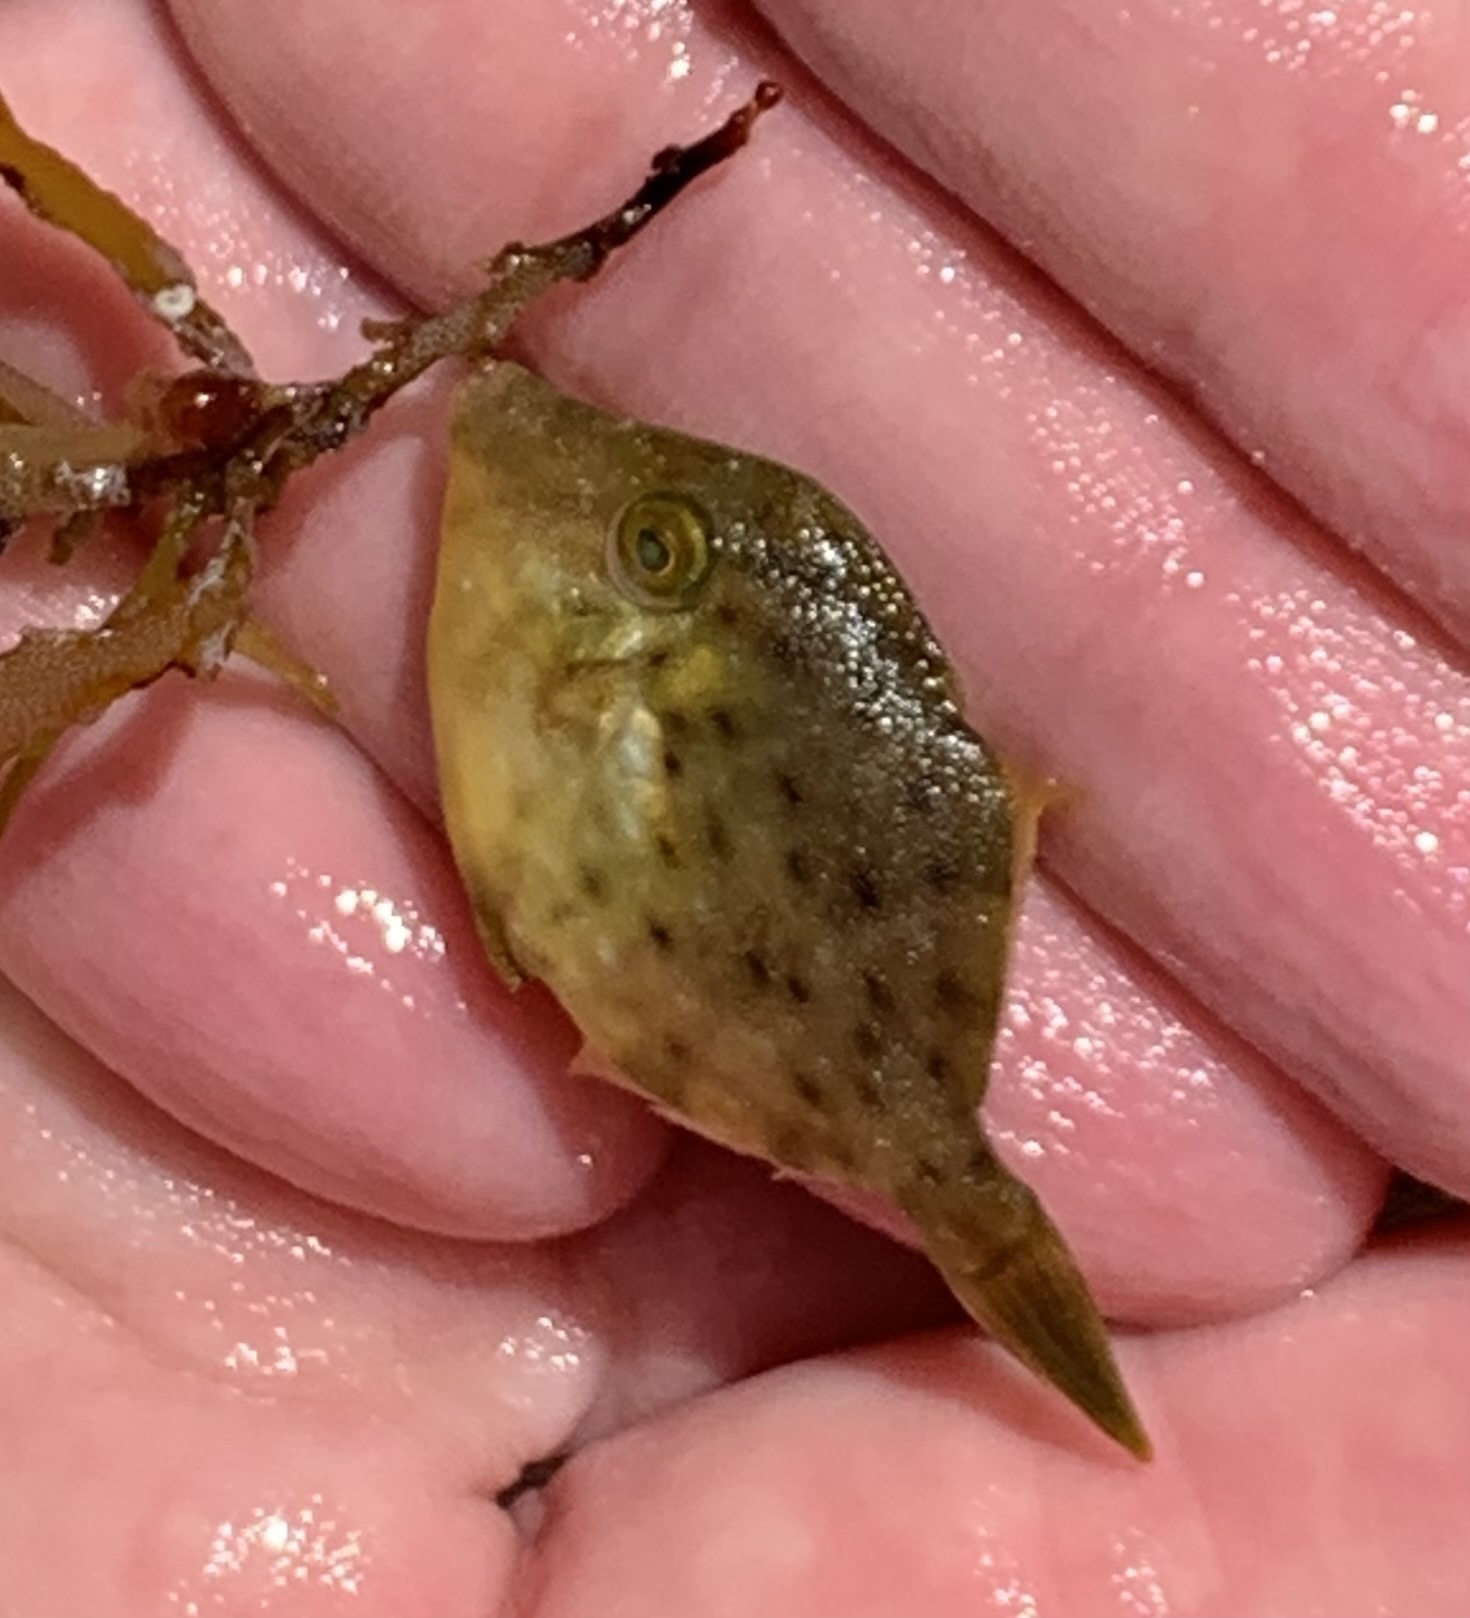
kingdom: Animalia
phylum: Chordata
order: Tetraodontiformes
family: Monacanthidae
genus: Stephanolepis
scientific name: Stephanolepis hispidus
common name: Planehead filefish
